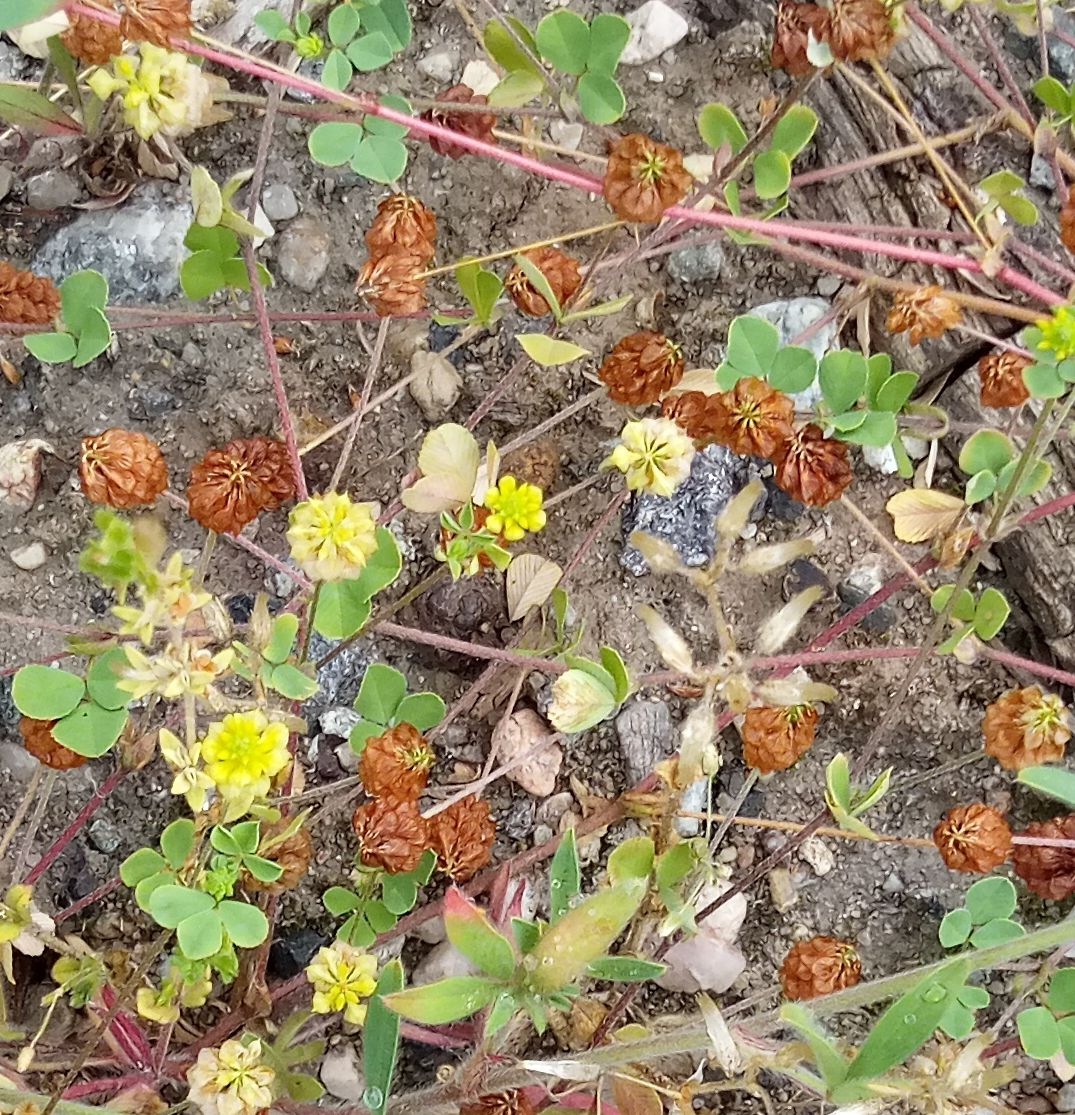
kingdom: Plantae
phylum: Tracheophyta
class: Magnoliopsida
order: Fabales
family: Fabaceae
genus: Trifolium
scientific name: Trifolium campestre
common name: Field clover
